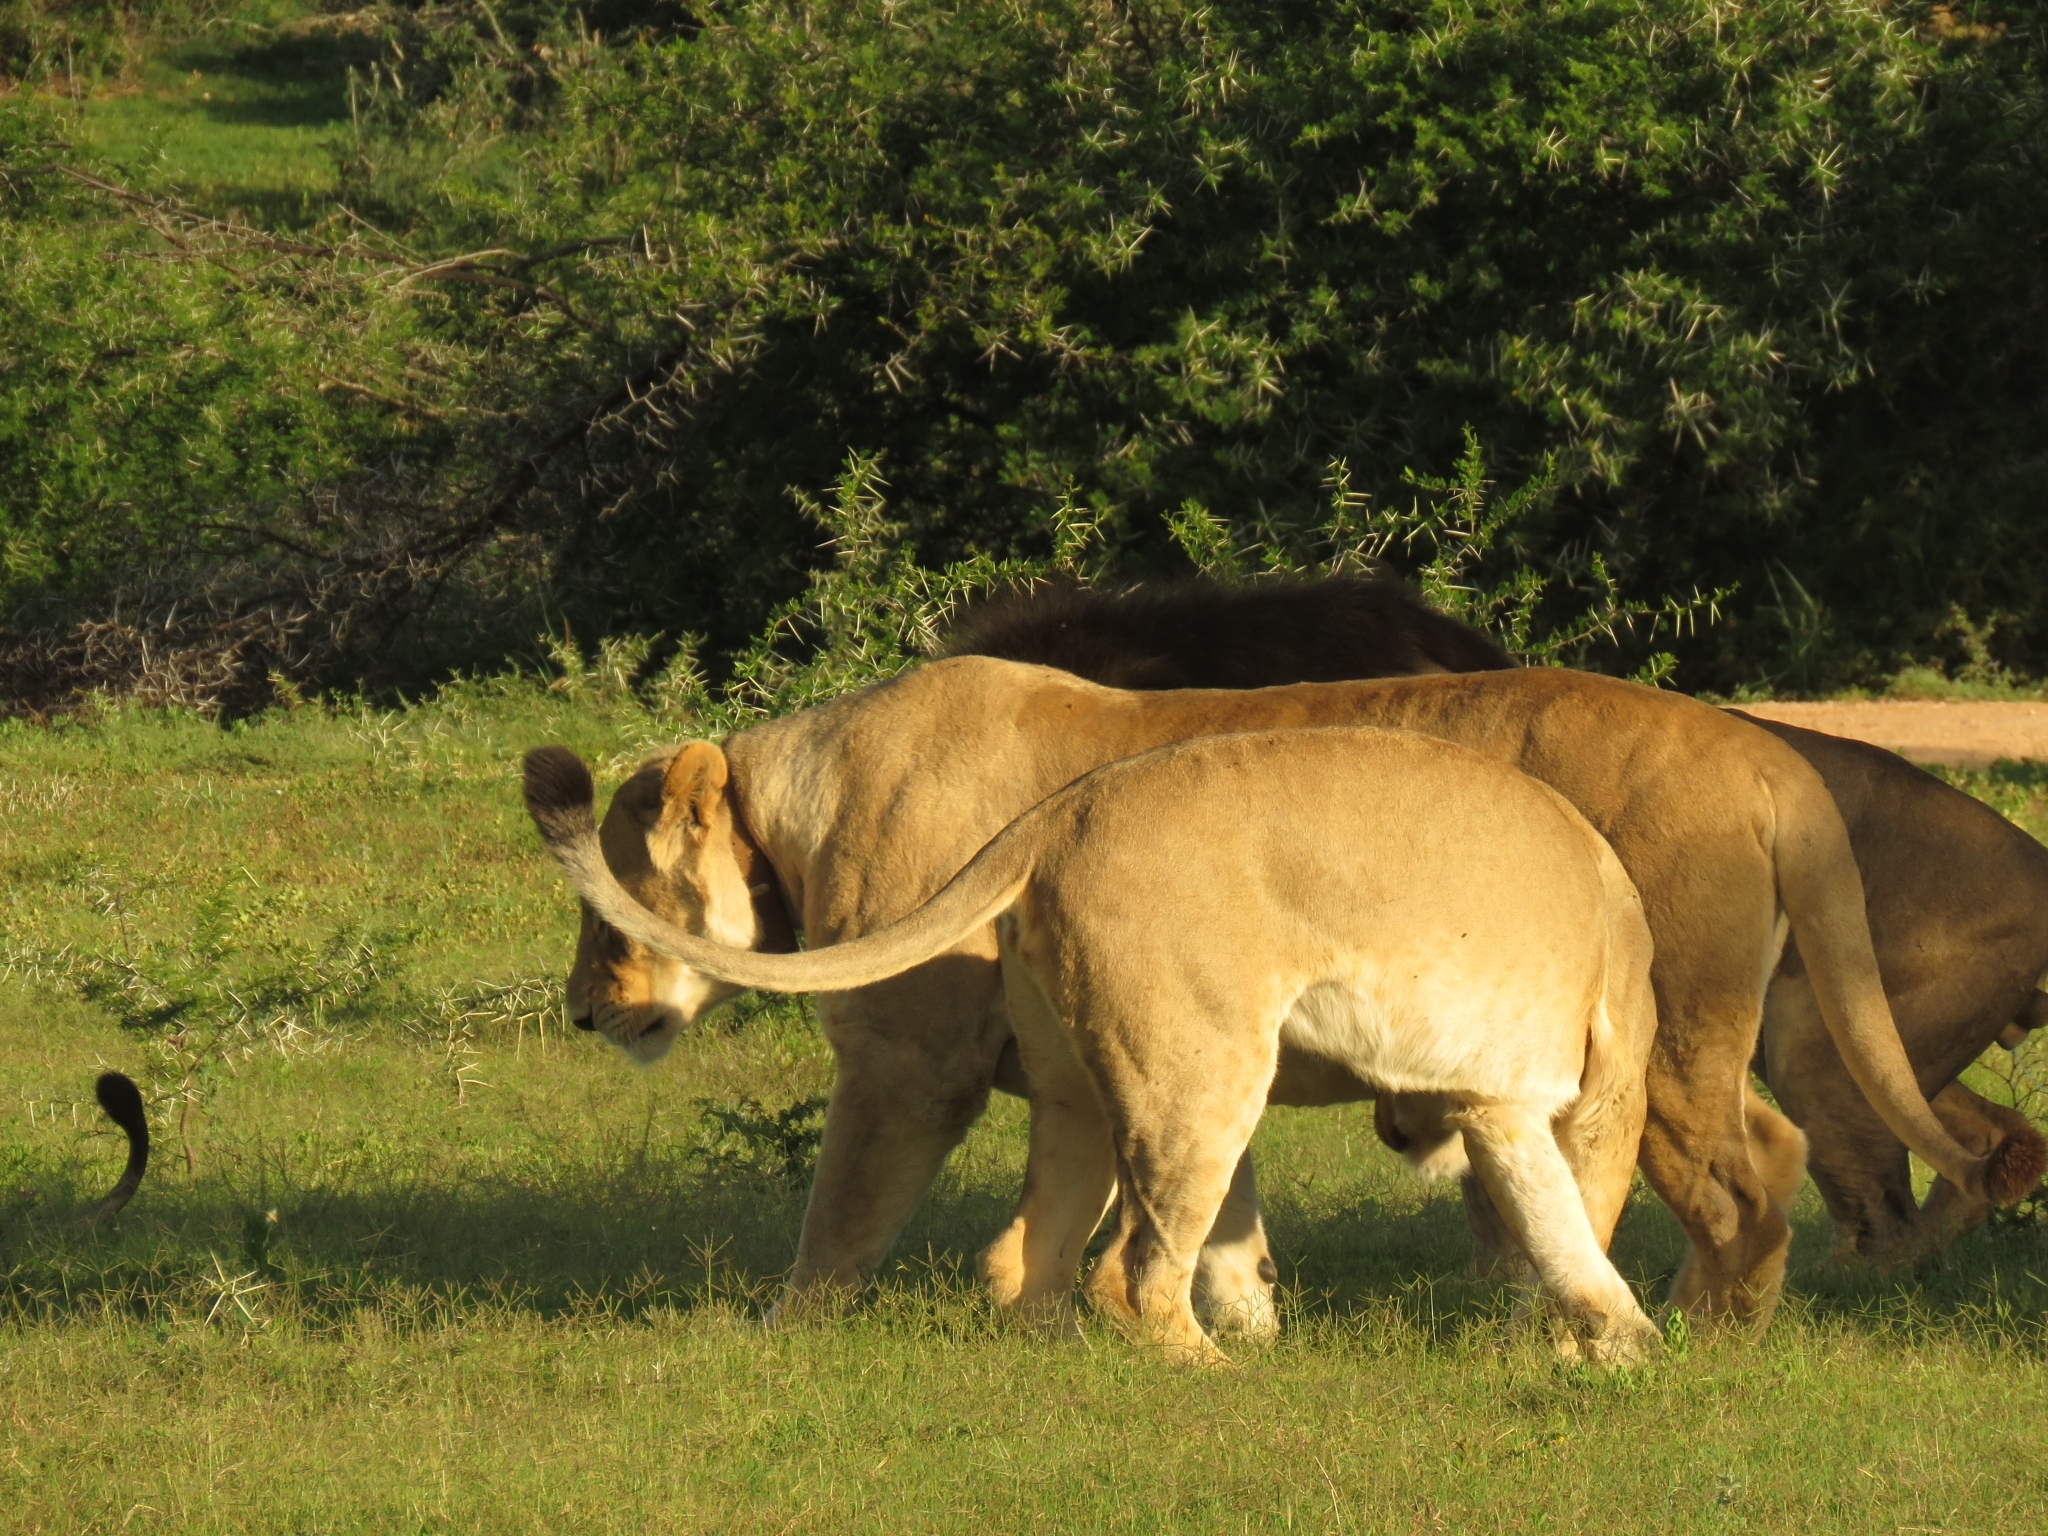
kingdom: Animalia
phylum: Chordata
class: Mammalia
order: Carnivora
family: Felidae
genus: Panthera
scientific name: Panthera leo
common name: Lion
